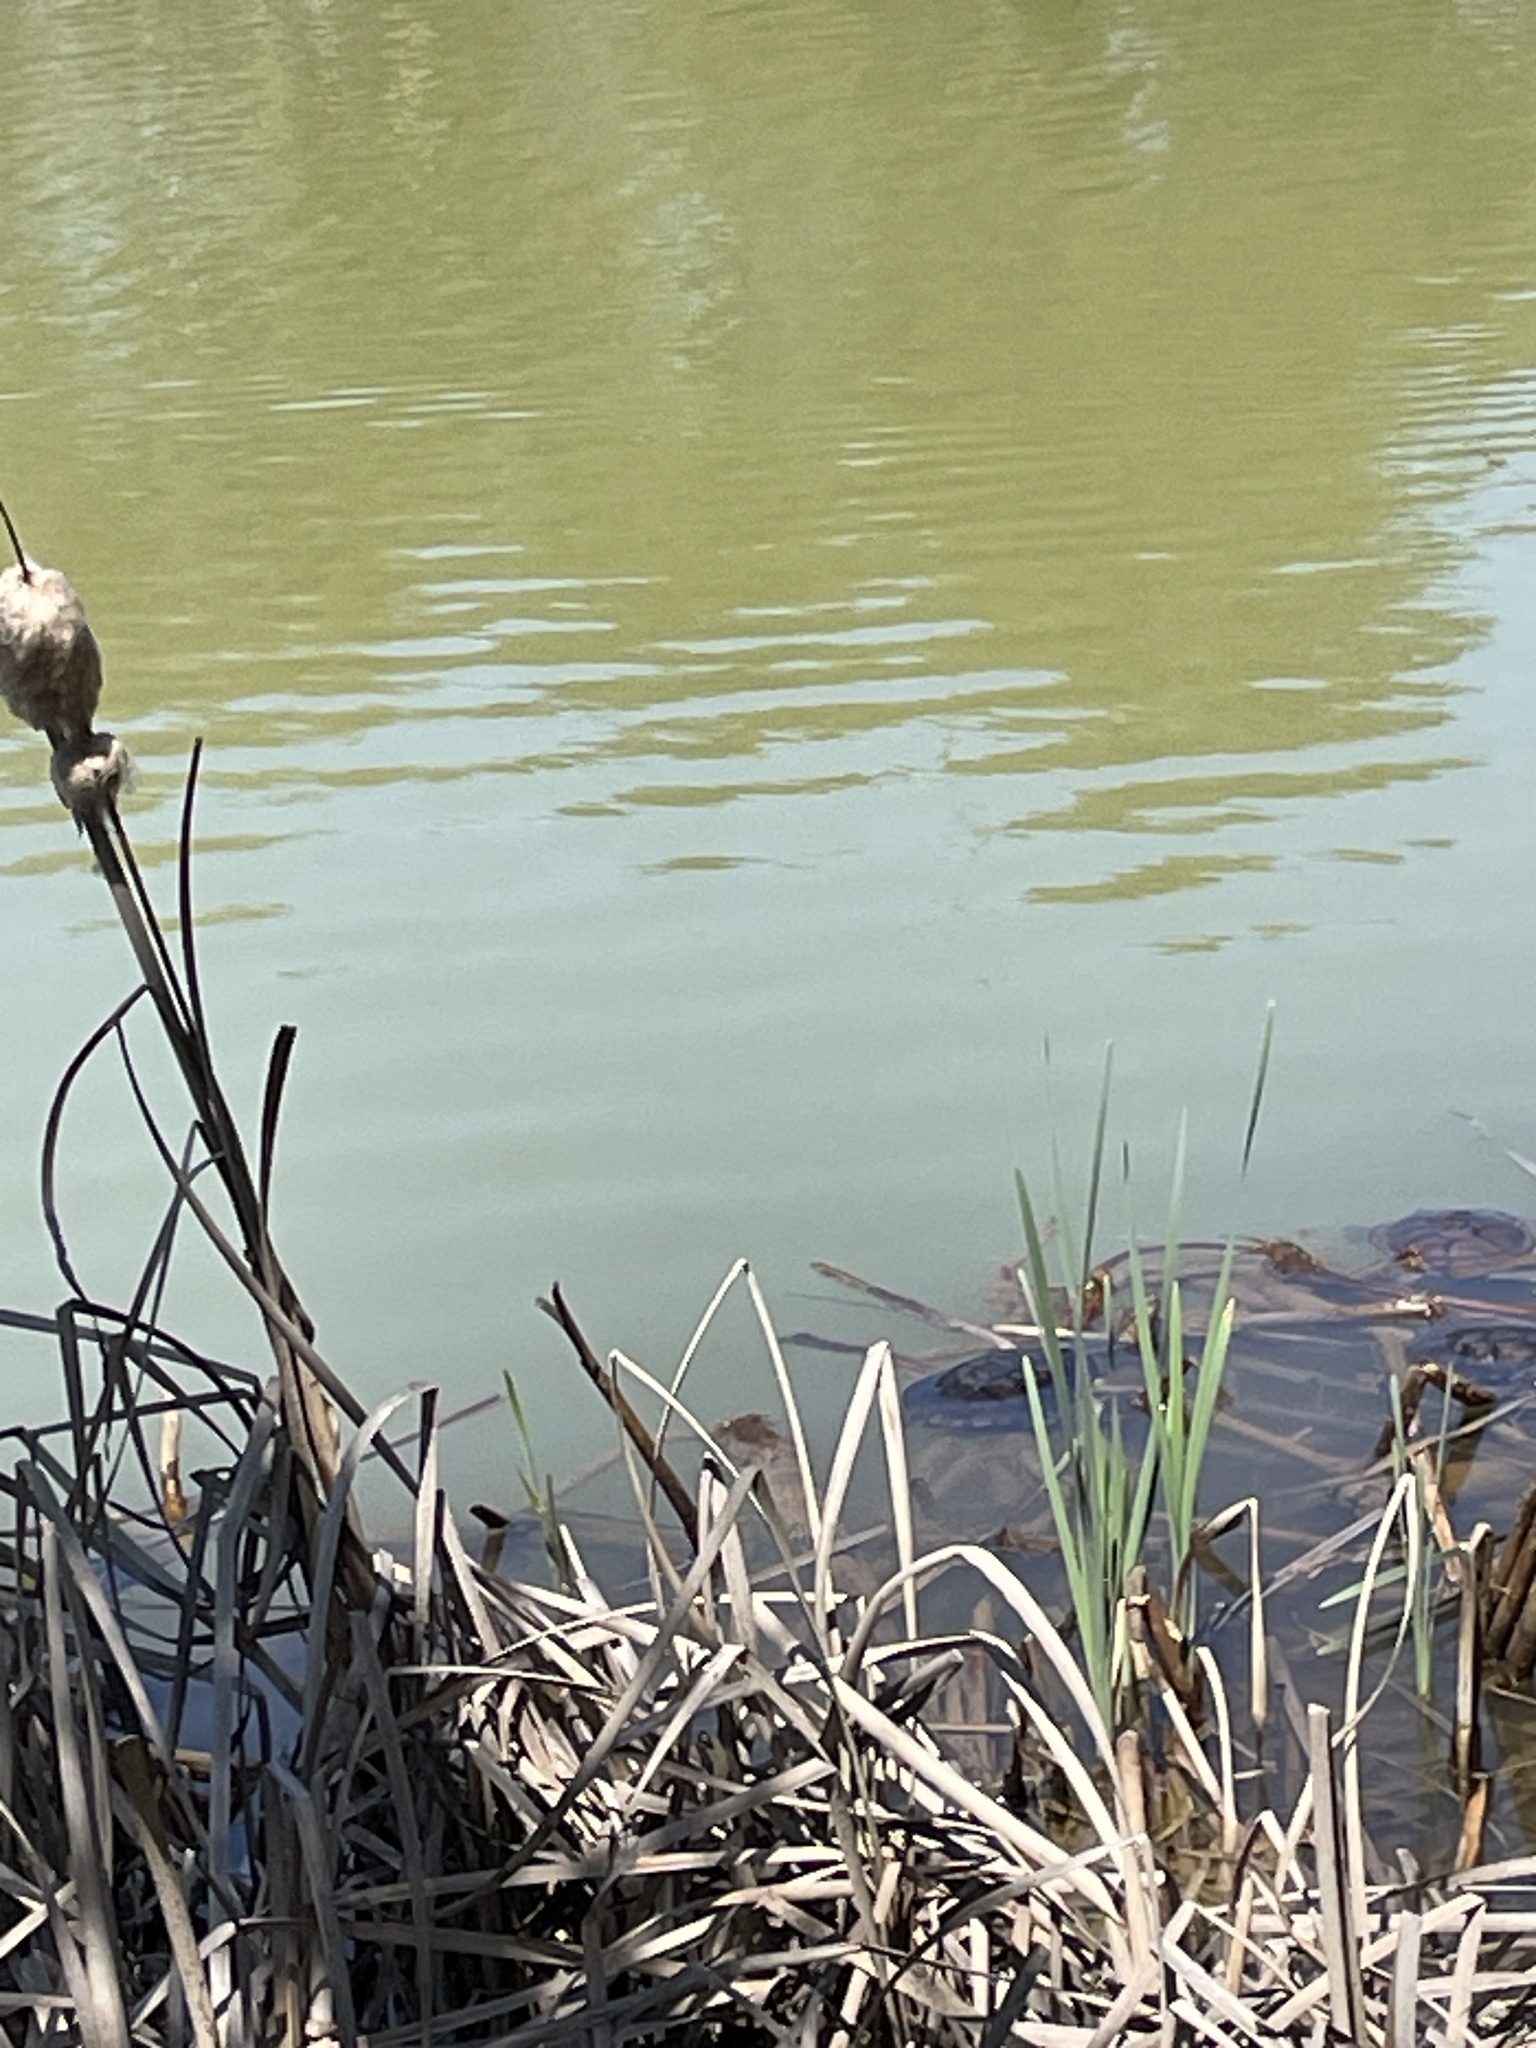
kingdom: Animalia
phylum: Chordata
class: Testudines
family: Chelidae
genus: Chelodina
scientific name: Chelodina longicollis
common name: Eastern snake-necked turtle
